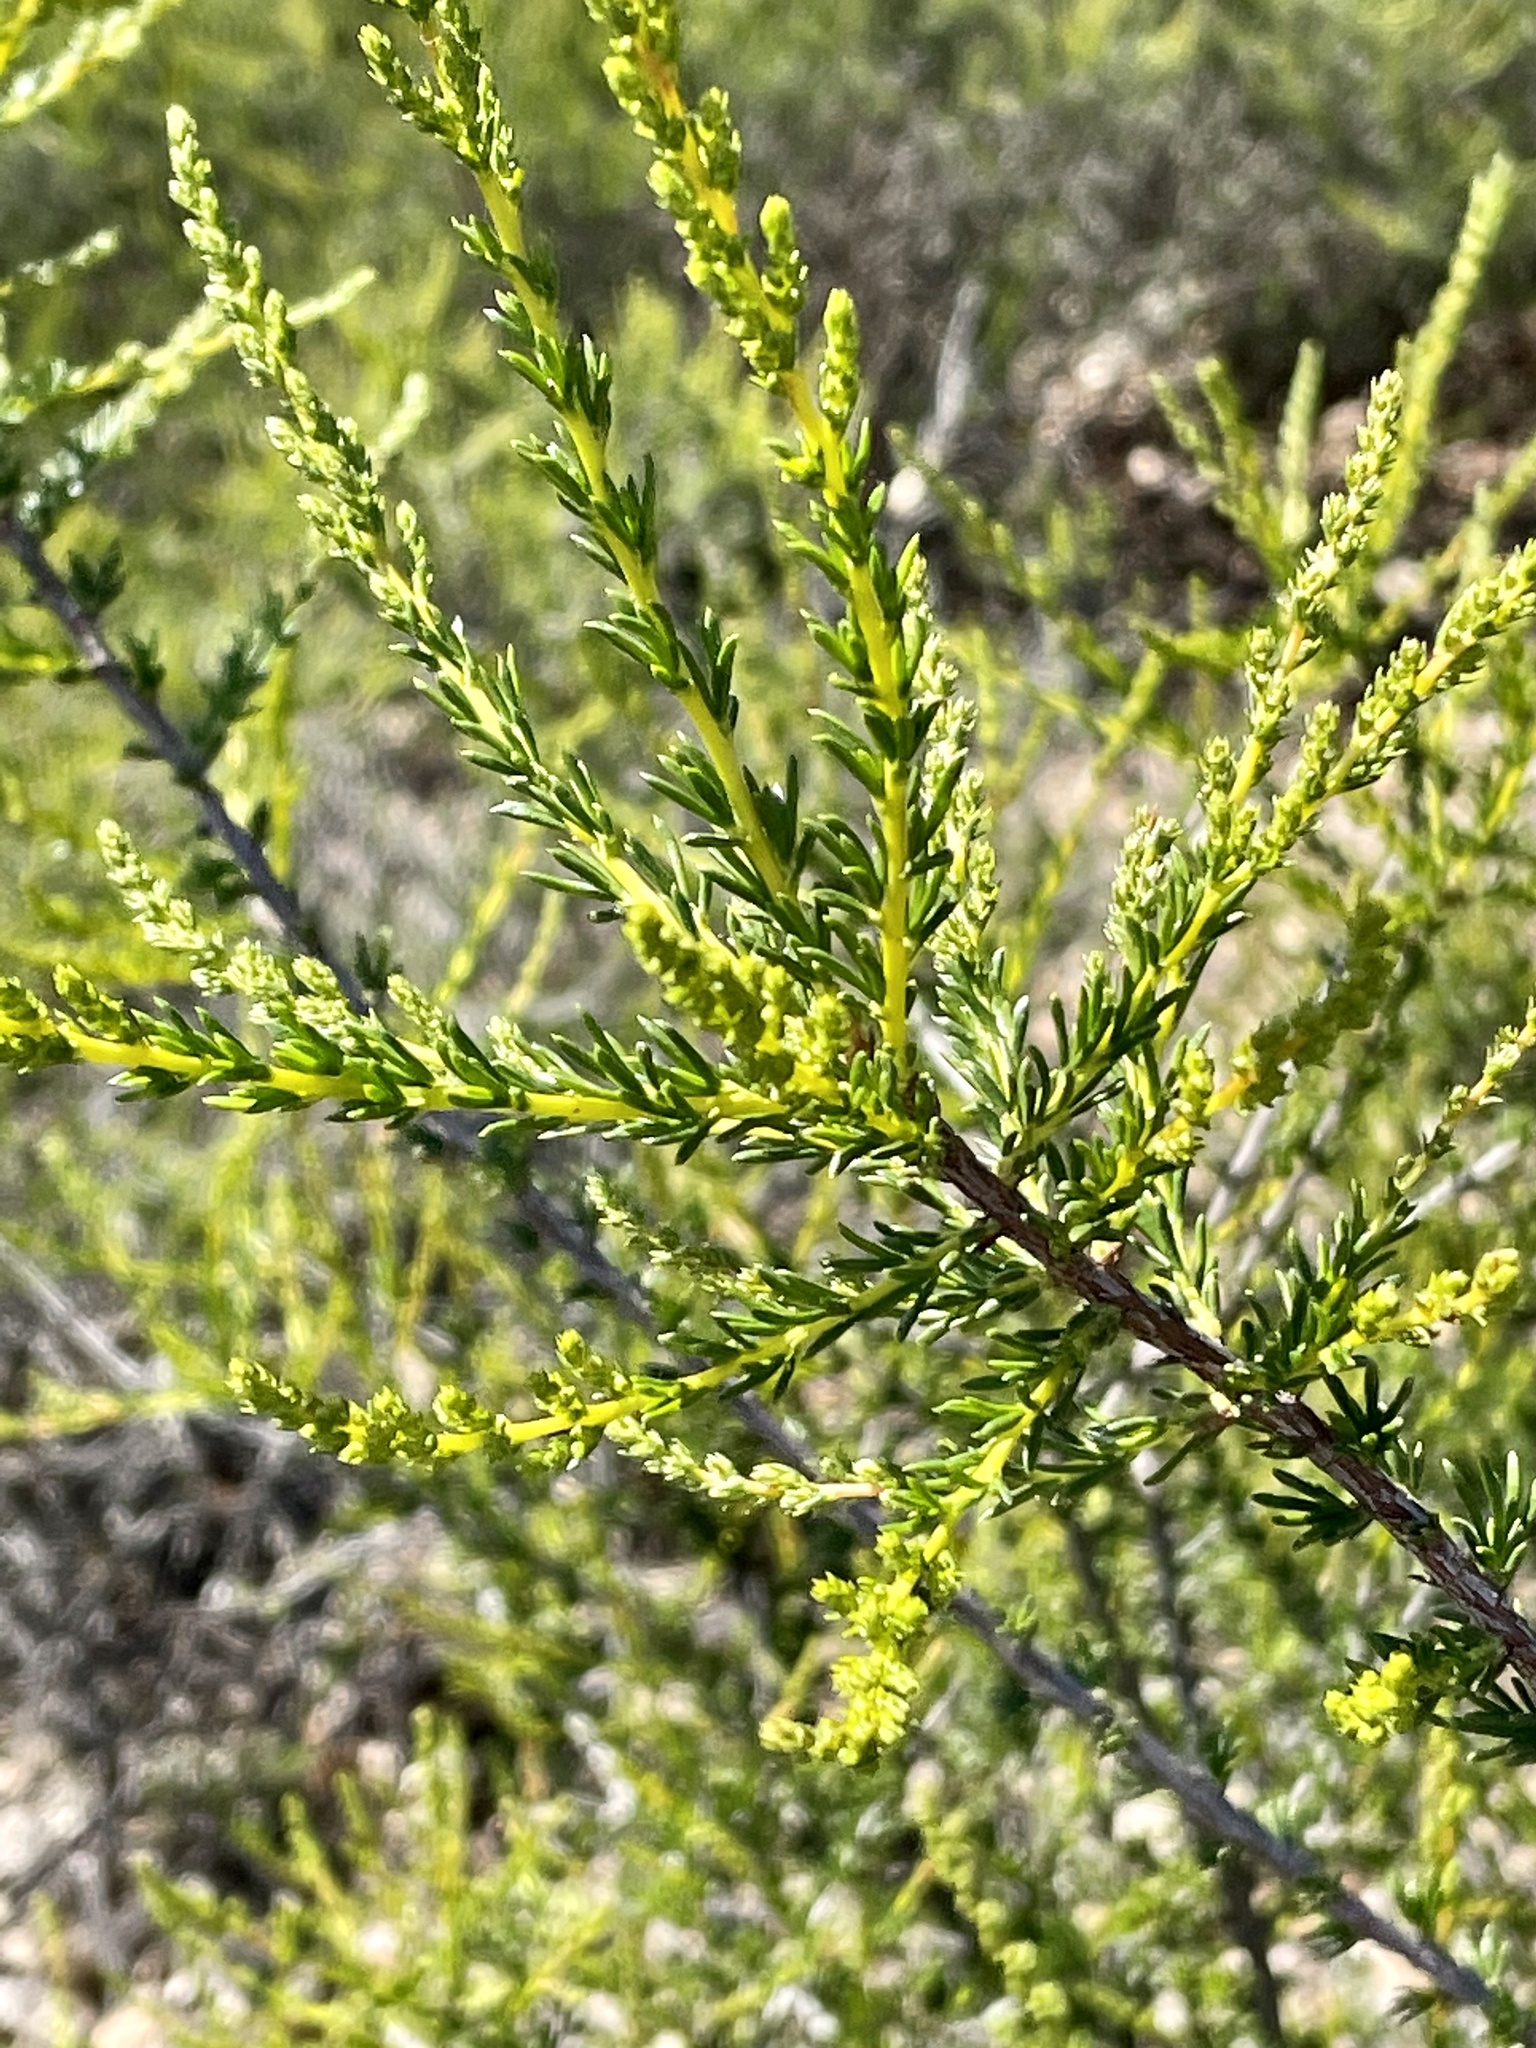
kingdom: Plantae
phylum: Tracheophyta
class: Magnoliopsida
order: Rosales
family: Rosaceae
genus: Adenostoma
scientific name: Adenostoma fasciculatum
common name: Chamise
